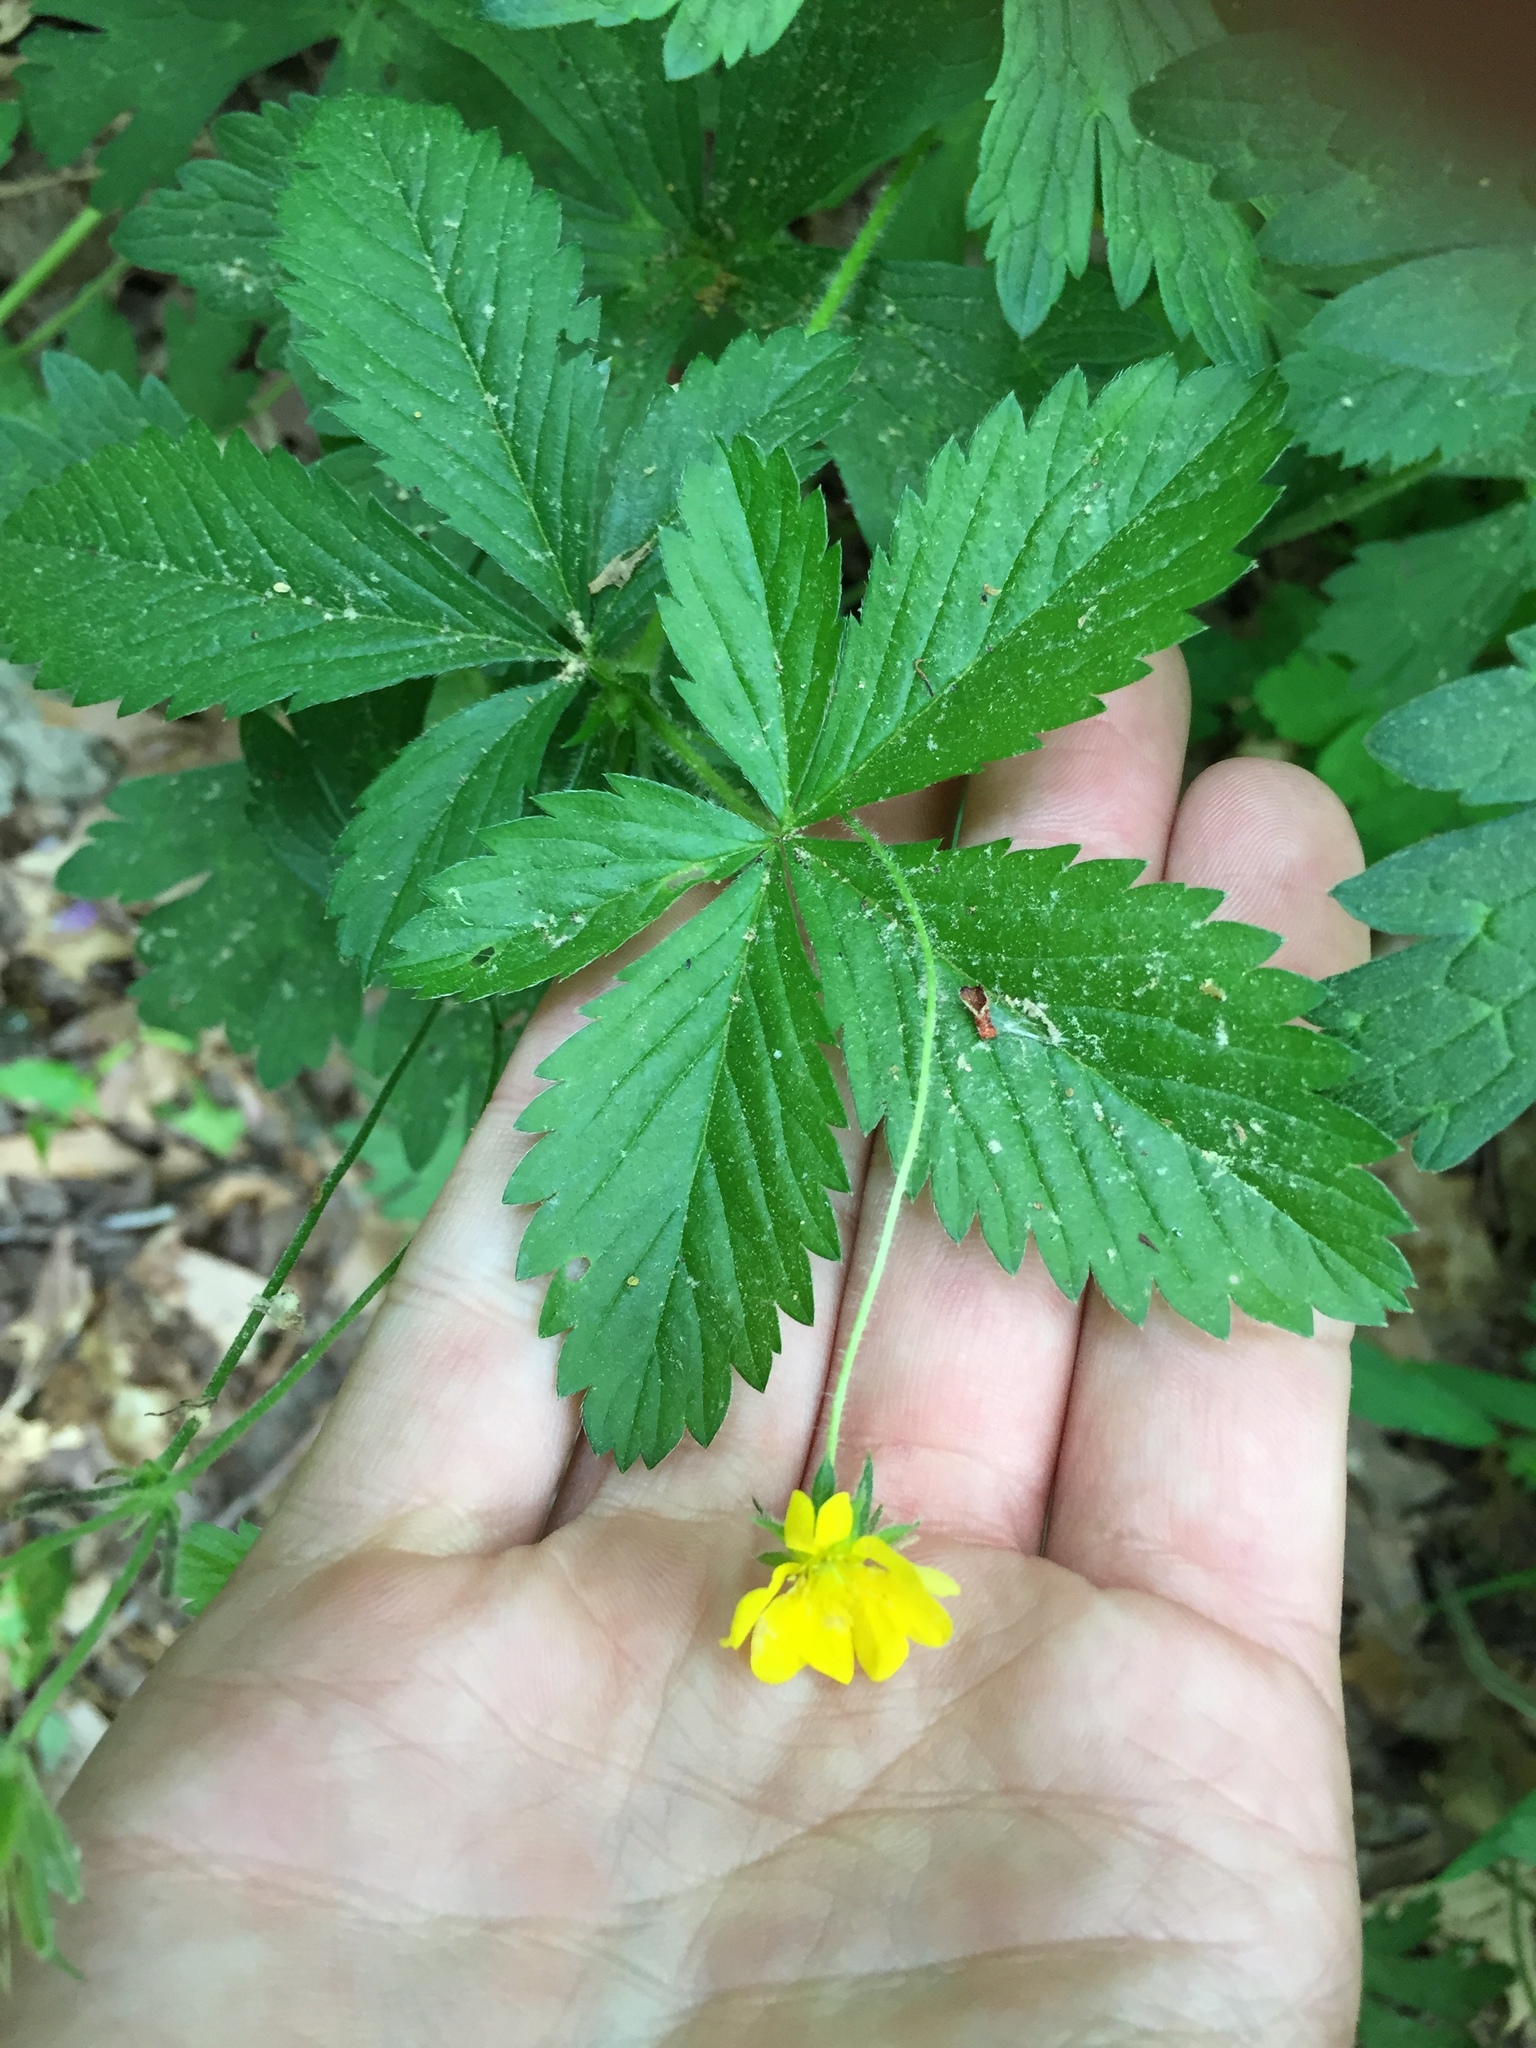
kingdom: Plantae
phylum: Tracheophyta
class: Magnoliopsida
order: Rosales
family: Rosaceae
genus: Potentilla
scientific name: Potentilla simplex
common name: Old field cinquefoil
